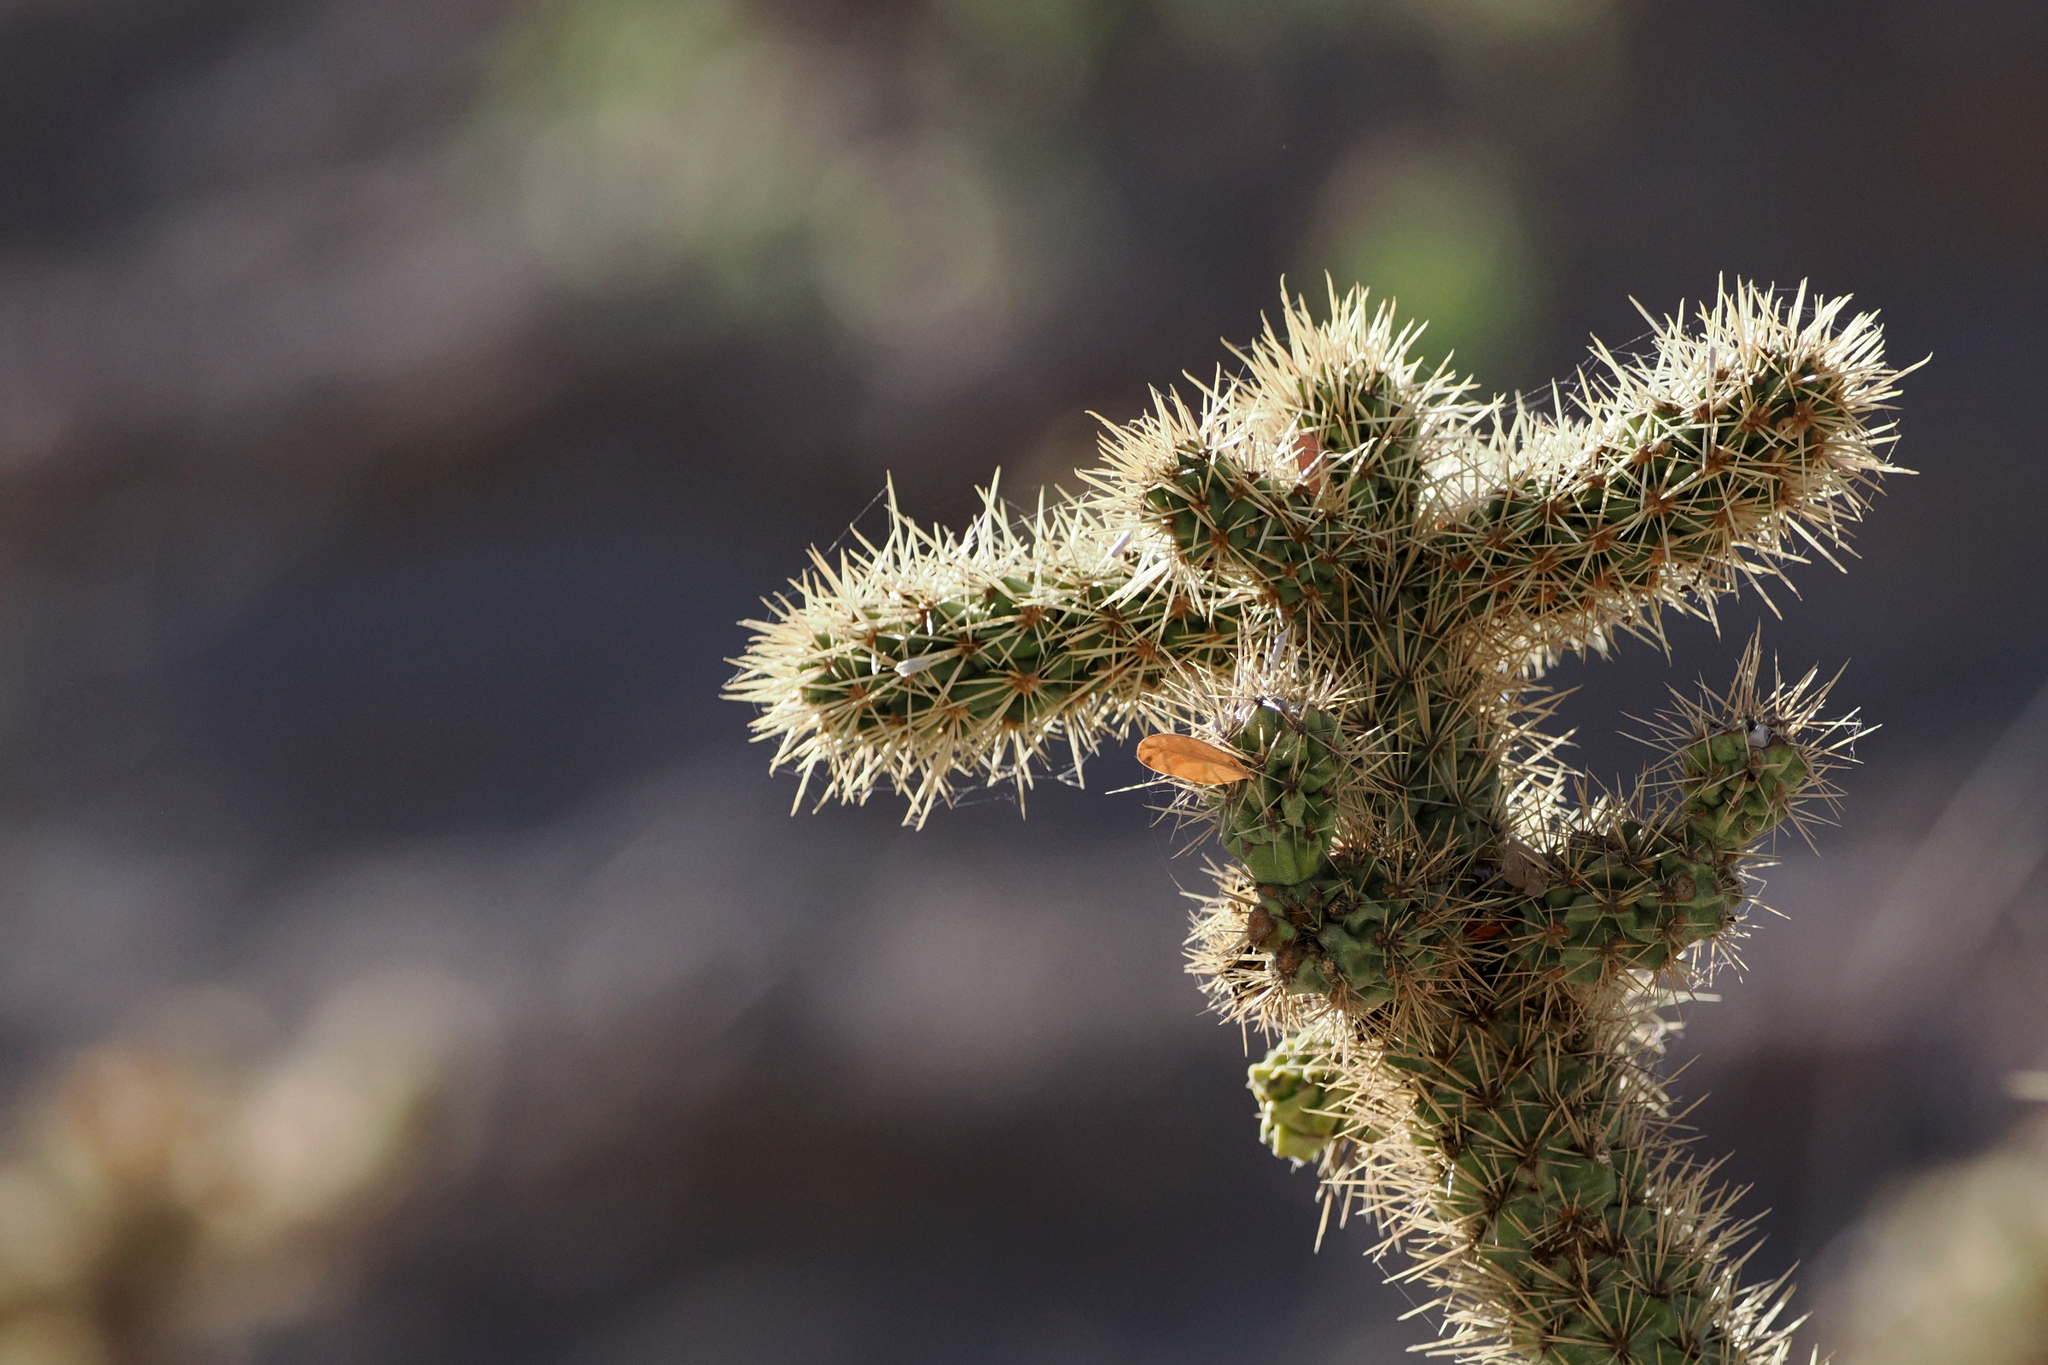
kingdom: Plantae
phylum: Tracheophyta
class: Magnoliopsida
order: Caryophyllales
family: Cactaceae
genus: Cylindropuntia
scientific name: Cylindropuntia alcahes
